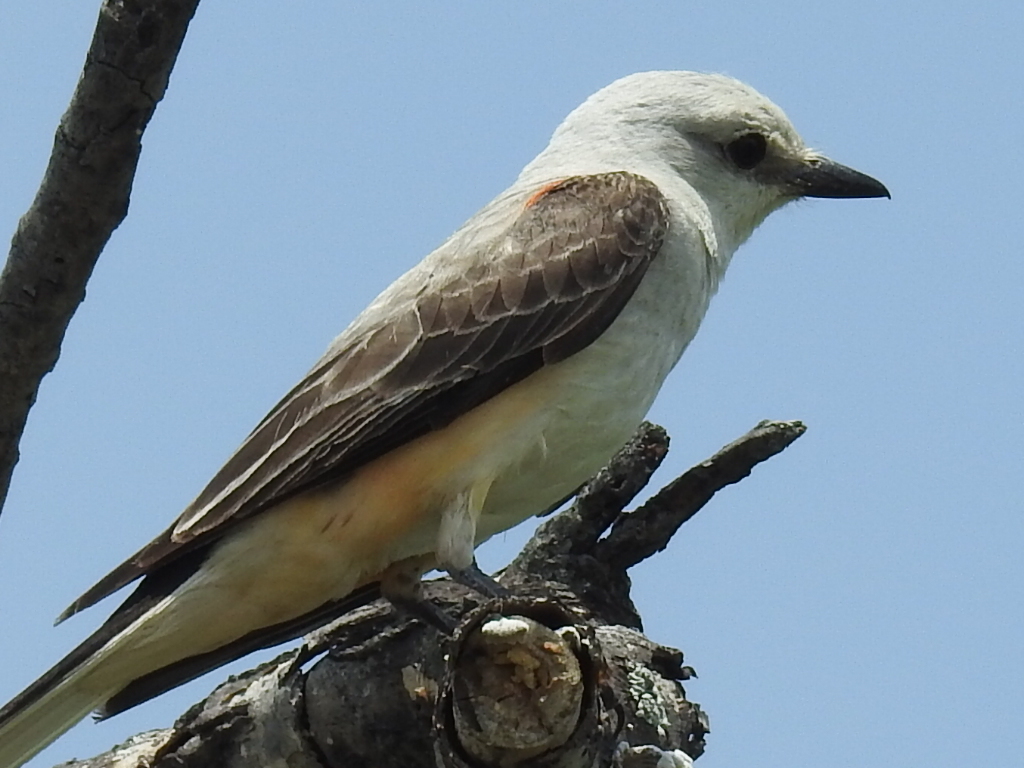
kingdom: Animalia
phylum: Chordata
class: Aves
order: Passeriformes
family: Tyrannidae
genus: Tyrannus
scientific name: Tyrannus forficatus
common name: Scissor-tailed flycatcher
